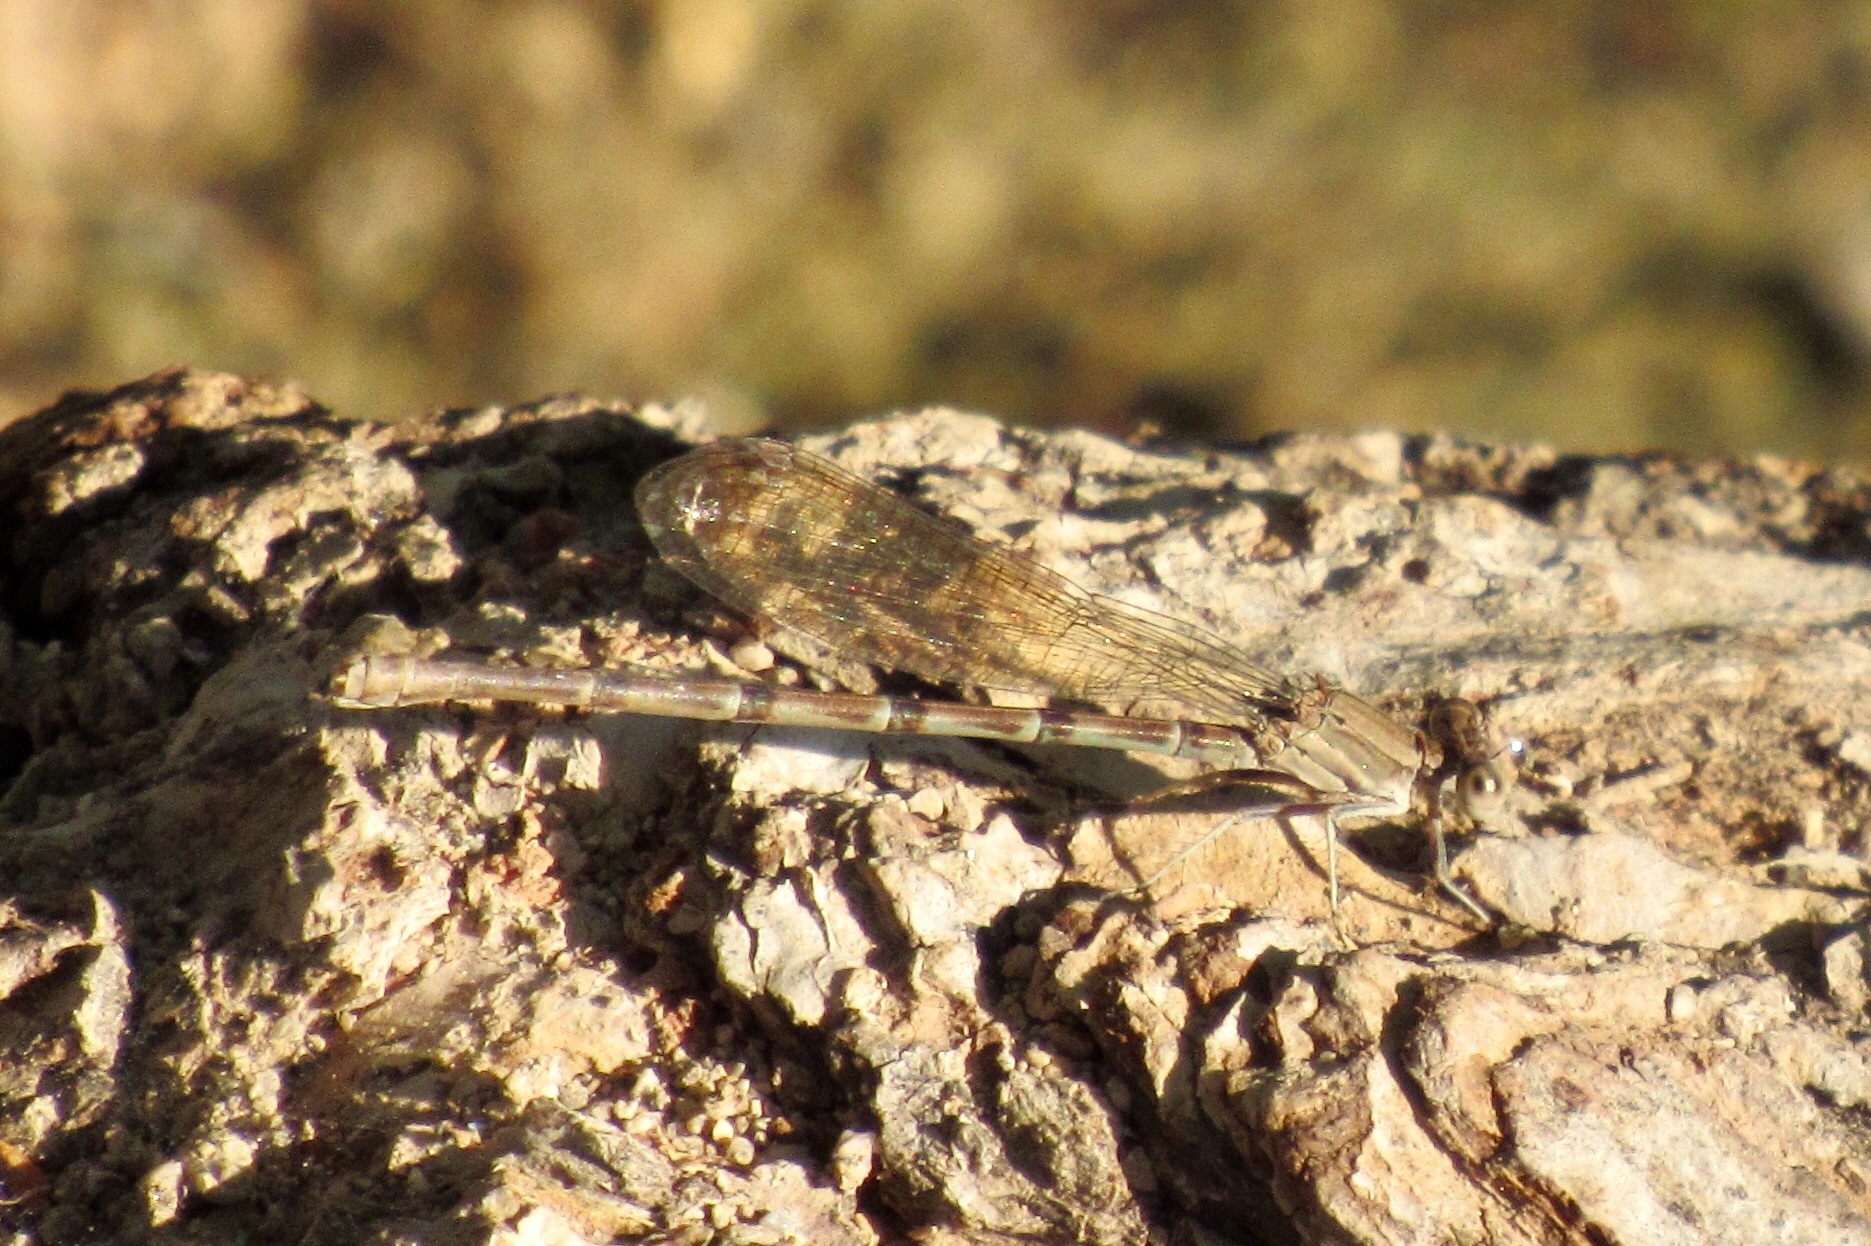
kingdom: Animalia
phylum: Arthropoda
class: Insecta
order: Odonata
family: Coenagrionidae
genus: Argia
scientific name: Argia sedula
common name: Blue-ringed dancer
